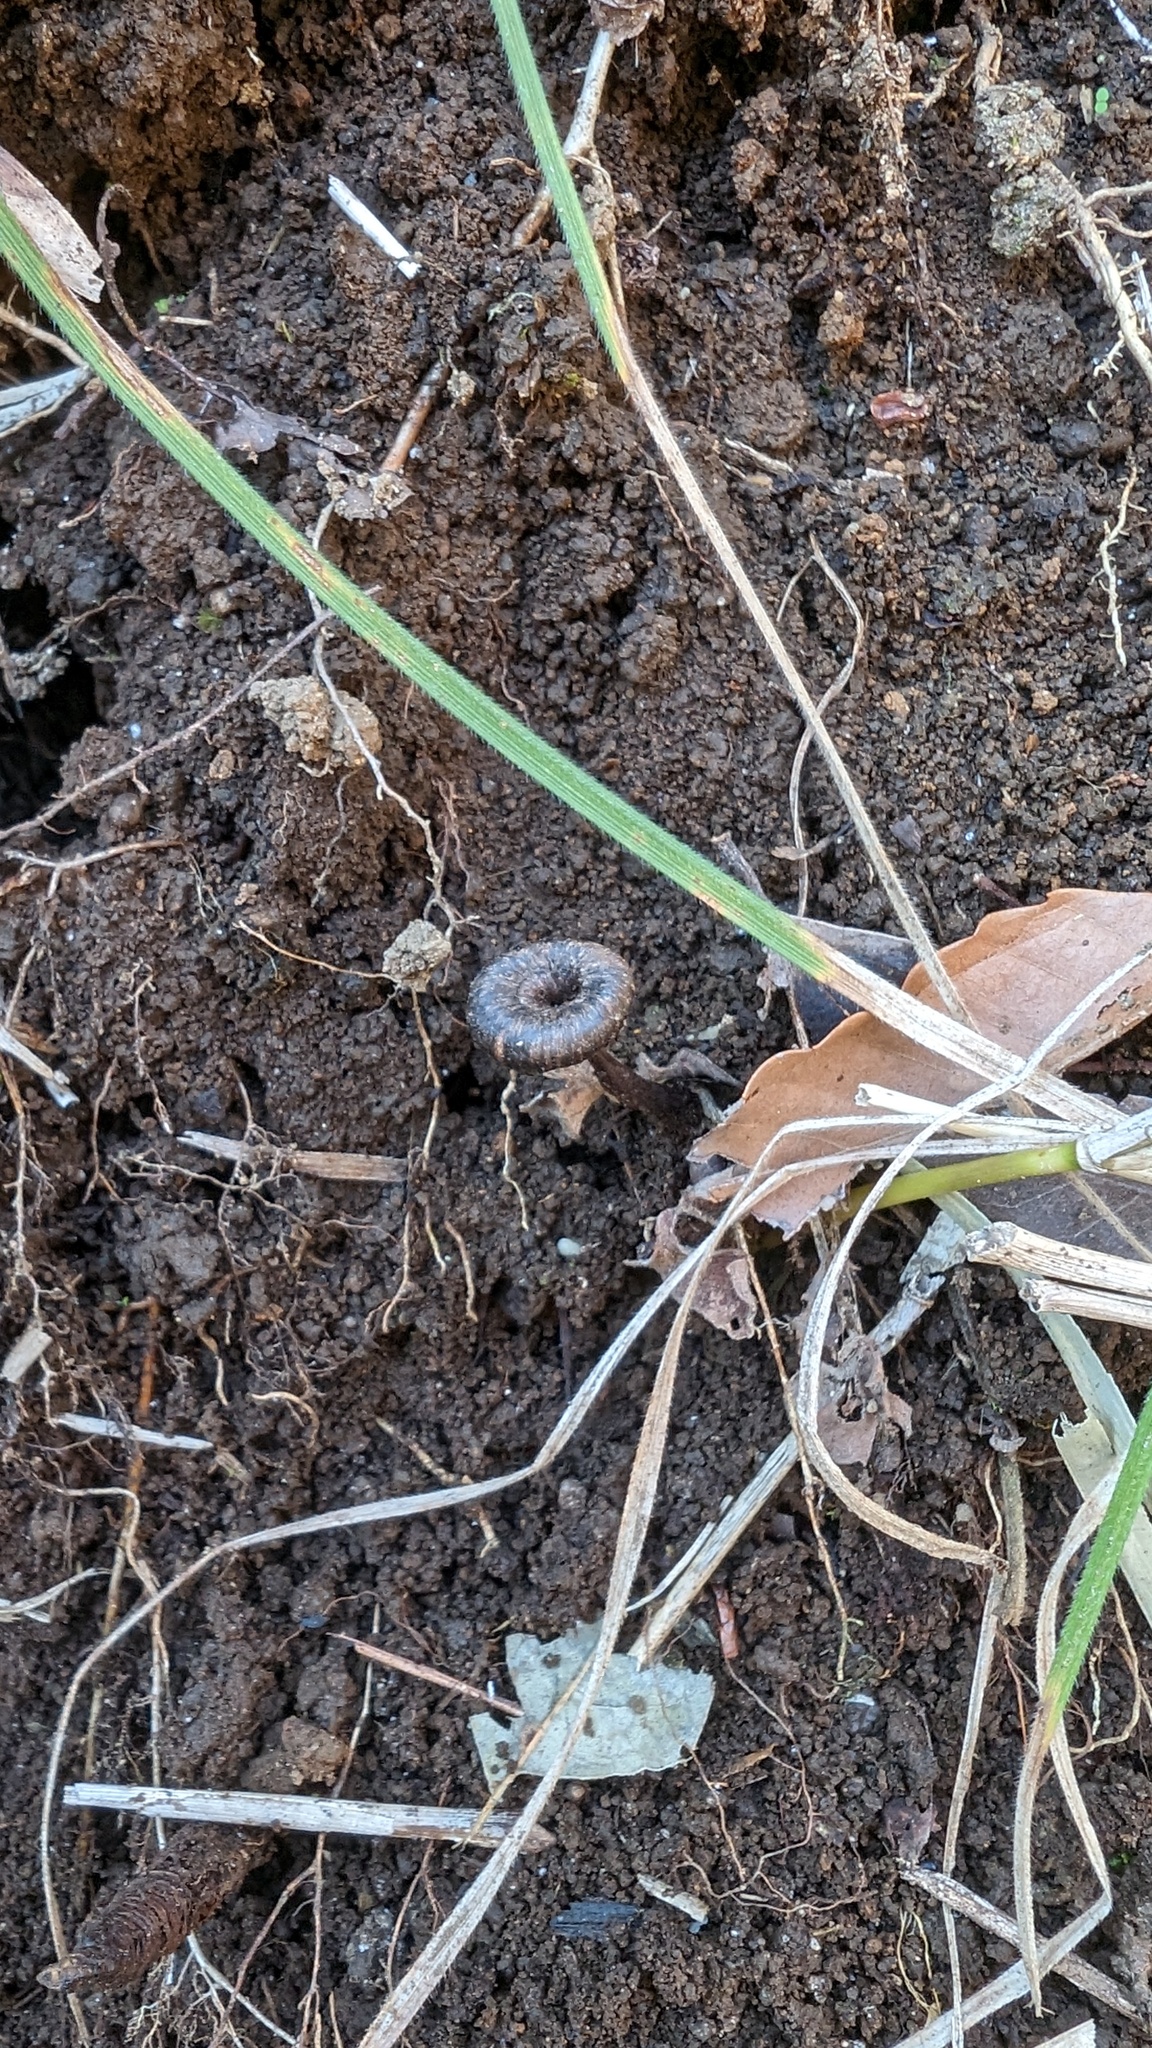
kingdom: Fungi
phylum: Basidiomycota
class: Agaricomycetes
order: Hymenochaetales
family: Hymenochaetaceae
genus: Coltricia
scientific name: Coltricia cinnamomea
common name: Shiny cinnamon polypore
